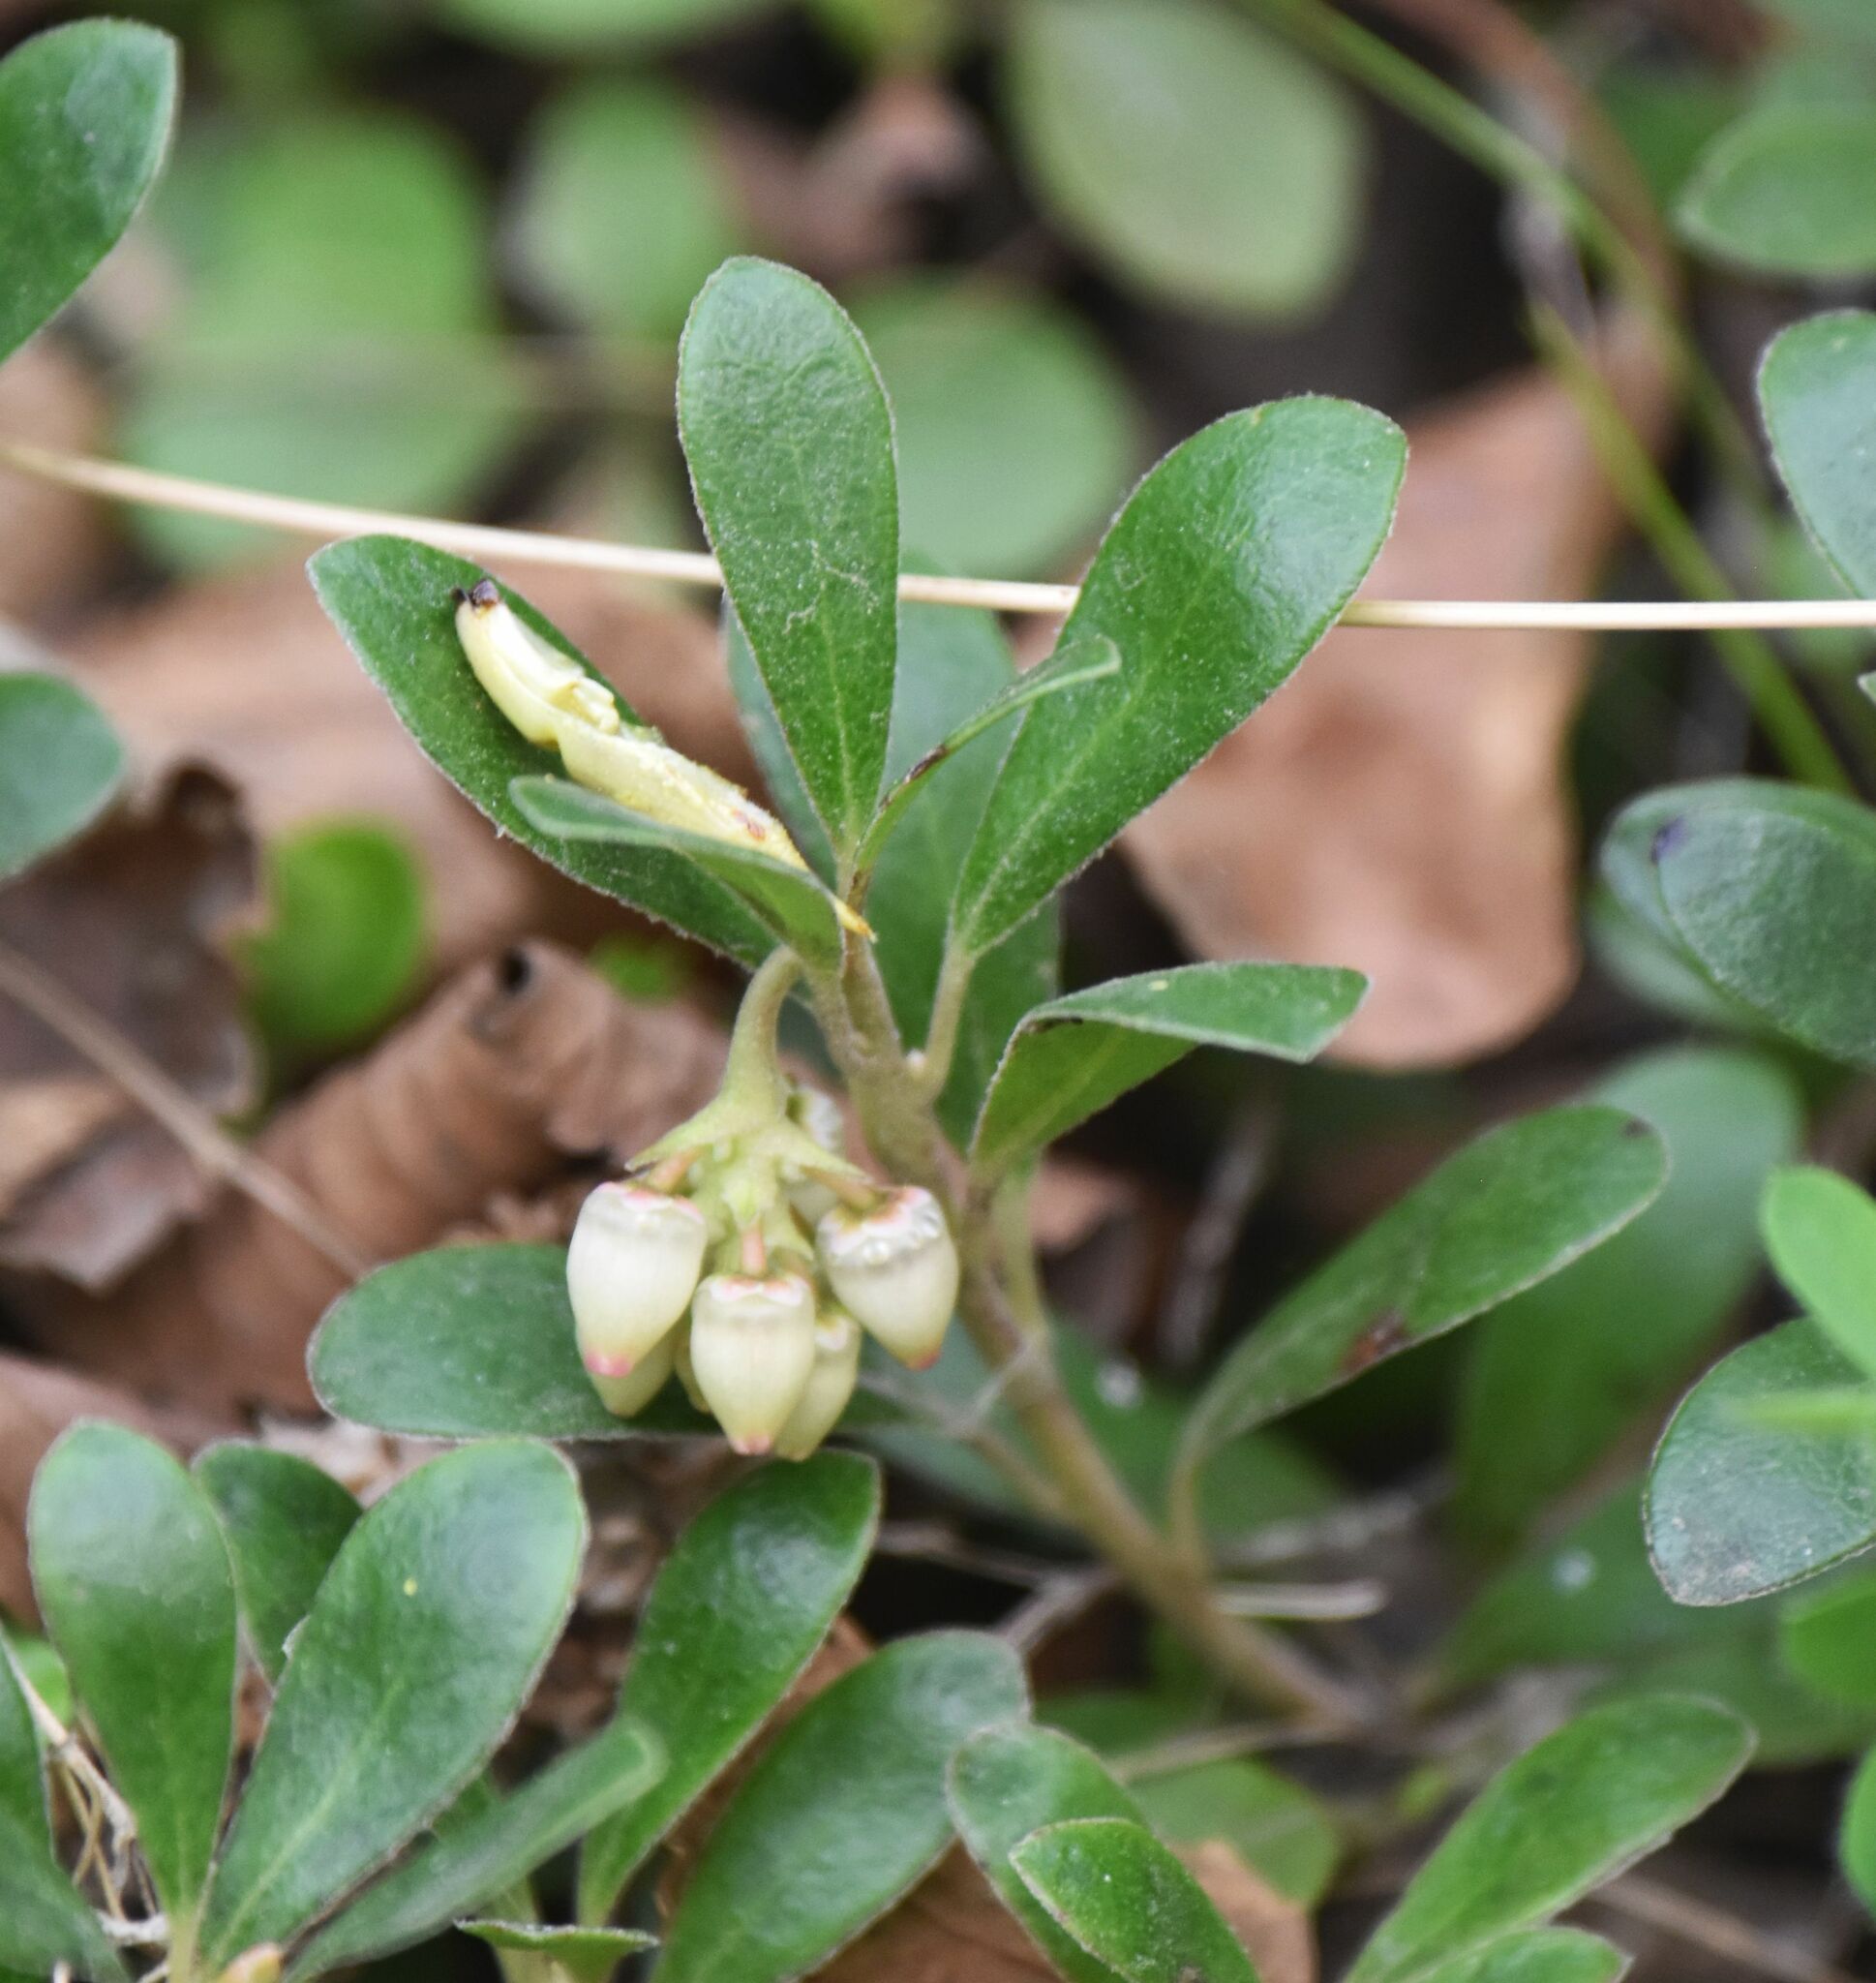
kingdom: Plantae
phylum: Tracheophyta
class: Magnoliopsida
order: Ericales
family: Ericaceae
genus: Arctostaphylos
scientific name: Arctostaphylos uva-ursi
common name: Bearberry
